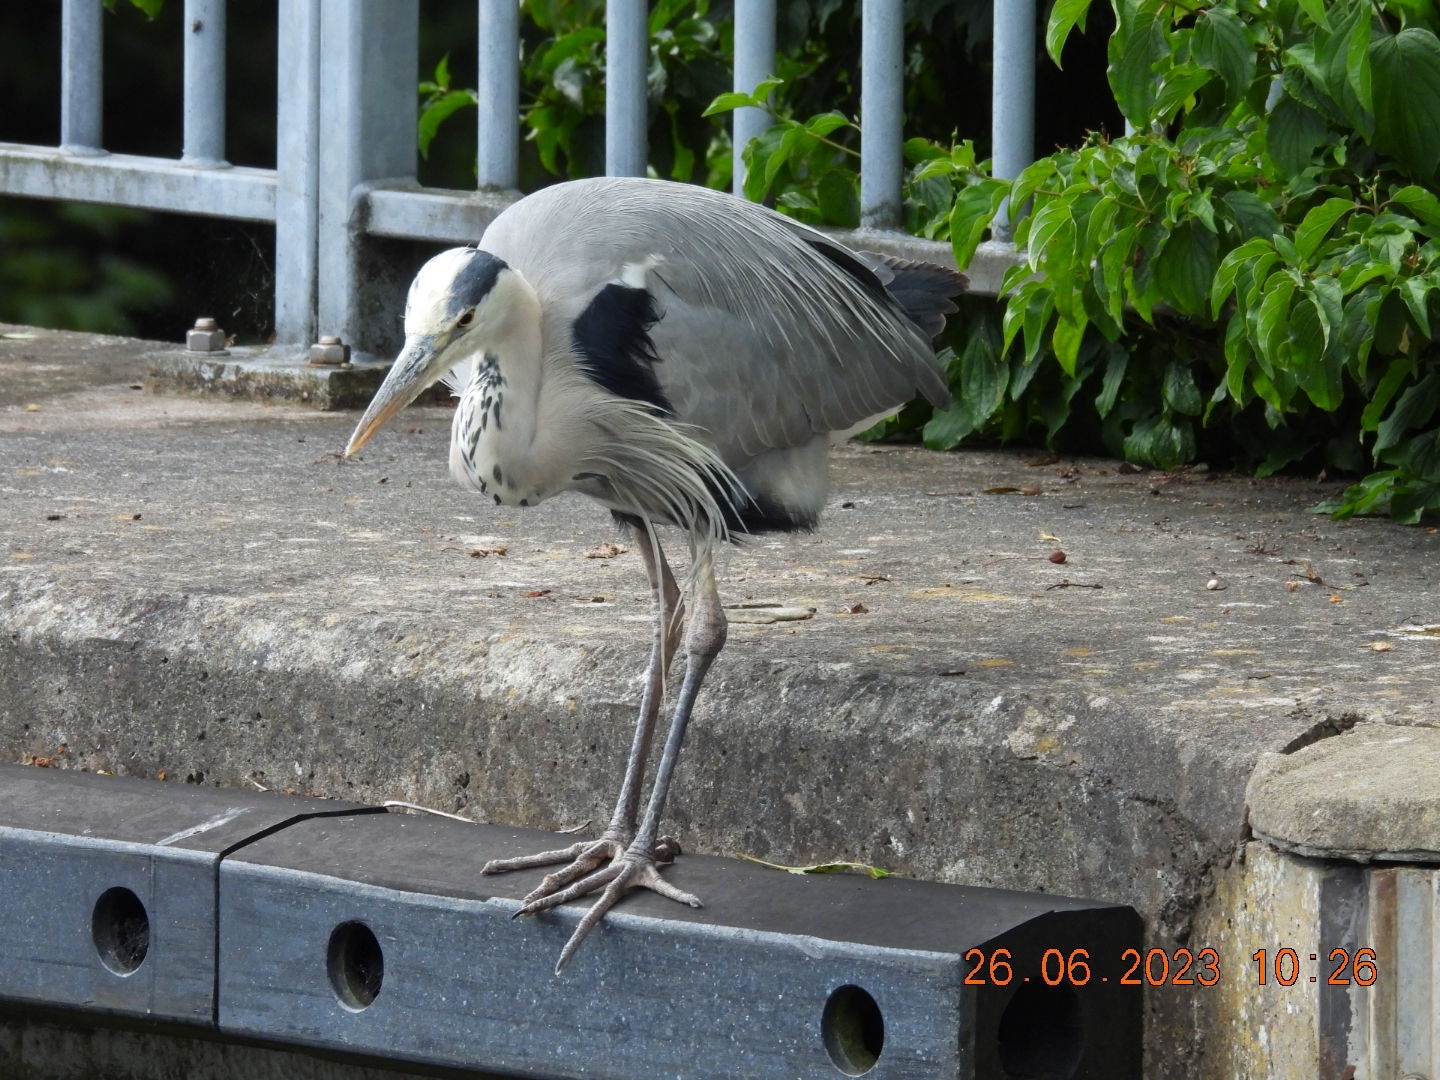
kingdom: Animalia
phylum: Chordata
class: Aves
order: Pelecaniformes
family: Ardeidae
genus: Ardea
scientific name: Ardea cinerea
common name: Grey heron
